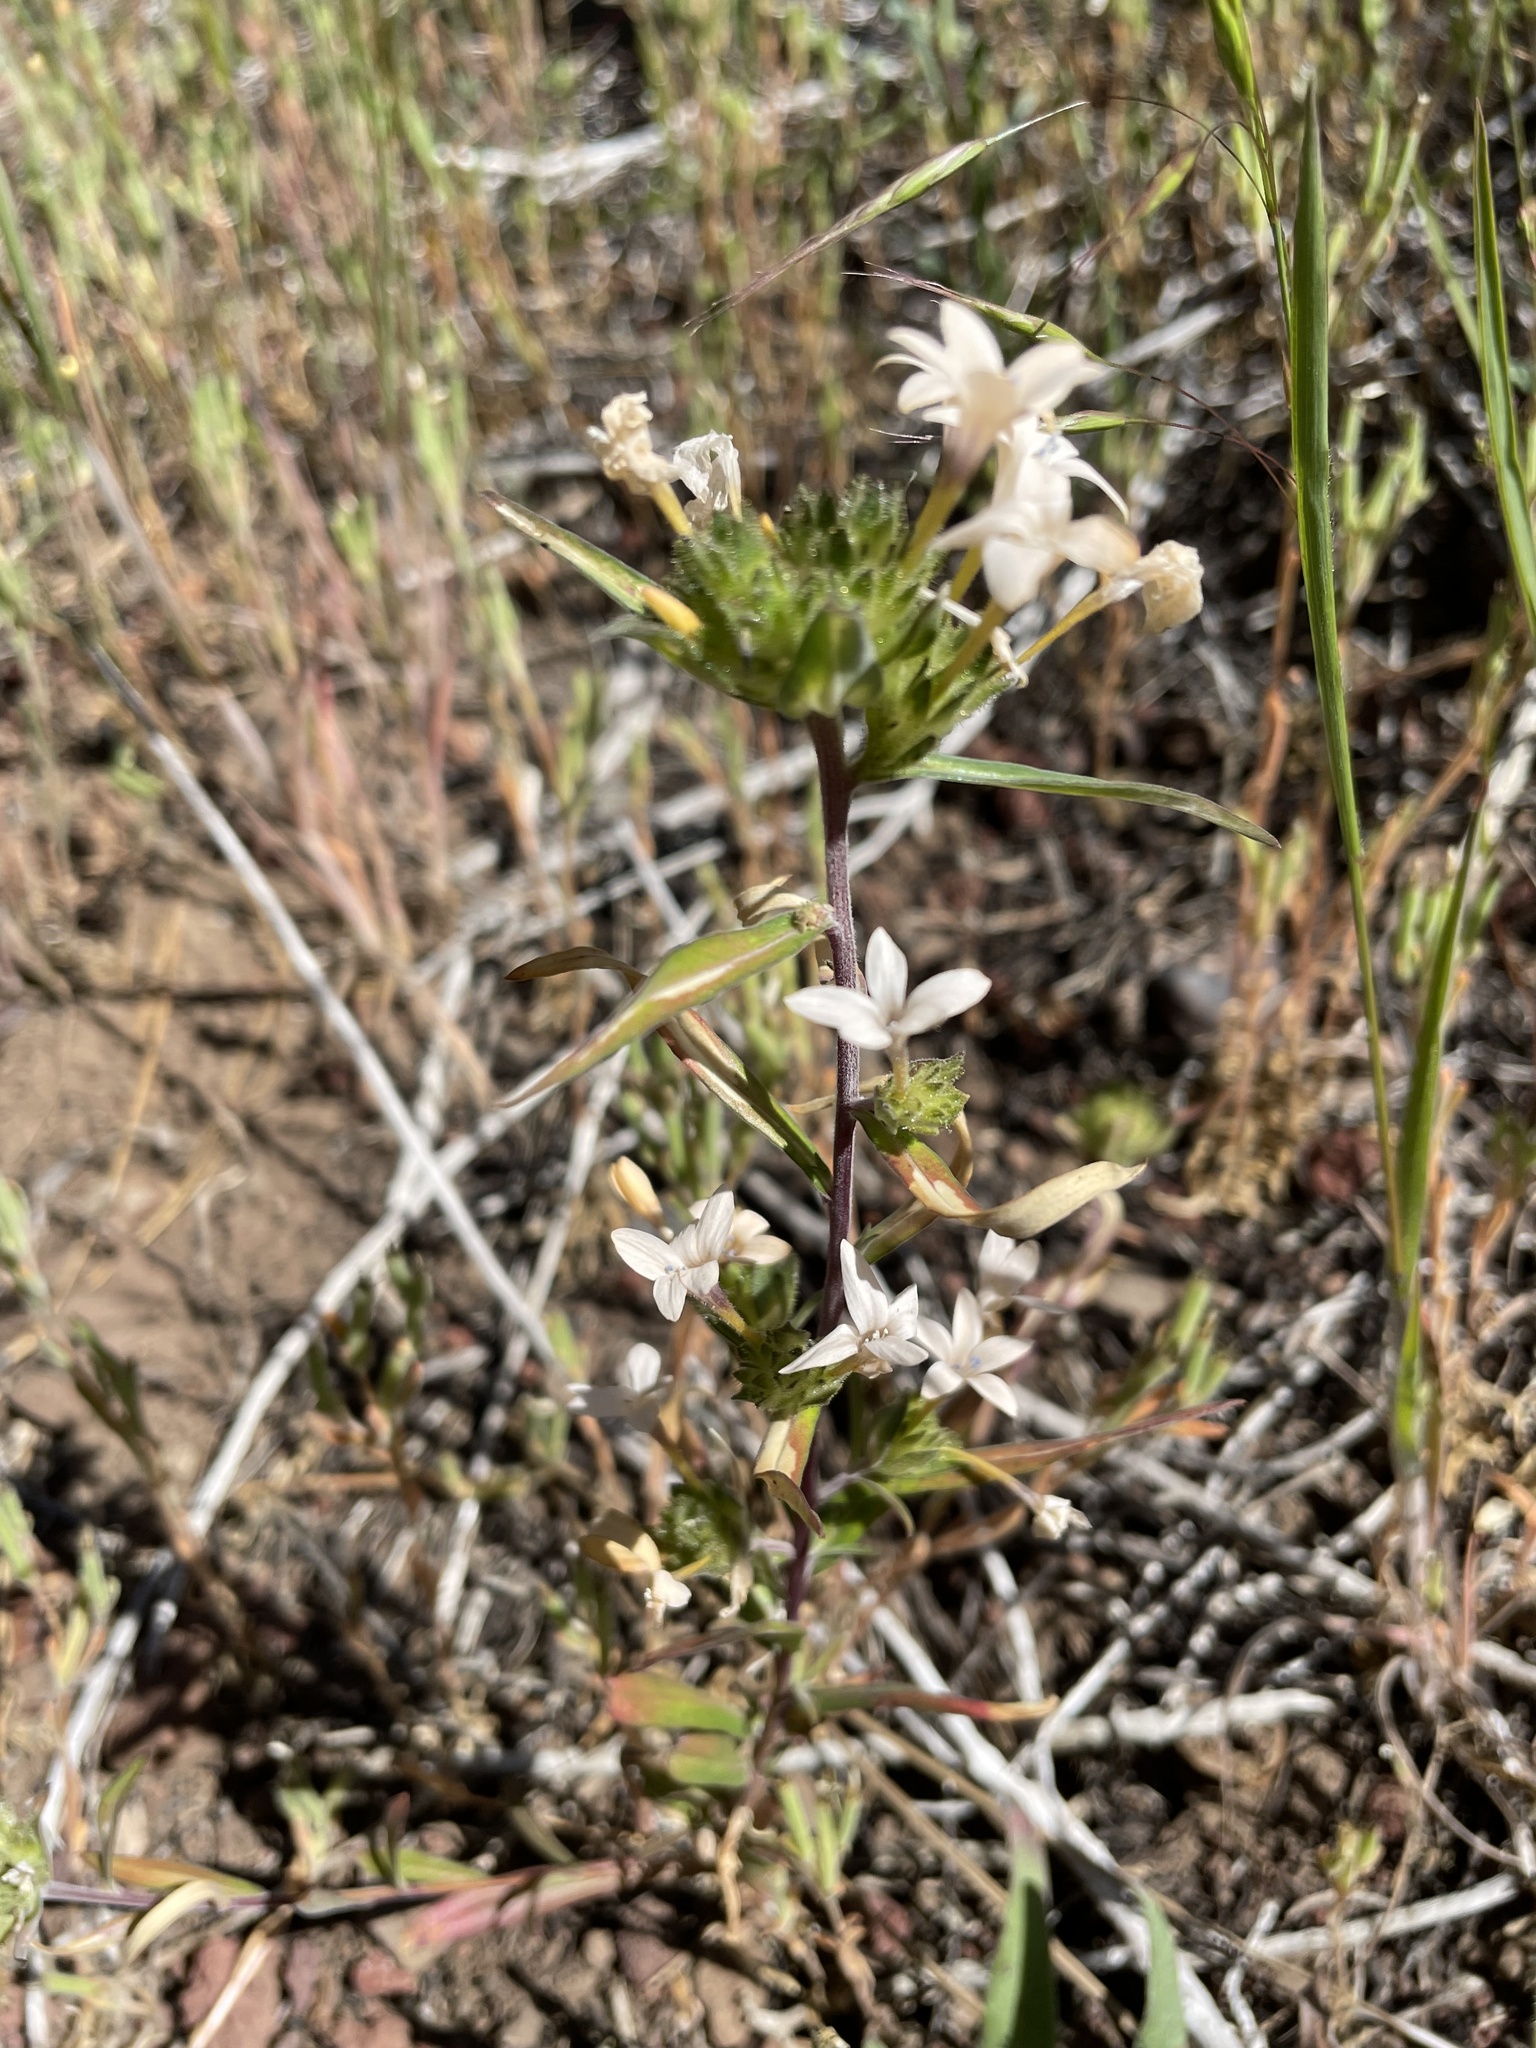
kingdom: Plantae
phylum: Tracheophyta
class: Magnoliopsida
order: Ericales
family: Polemoniaceae
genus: Collomia
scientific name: Collomia grandiflora
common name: California strawflower
